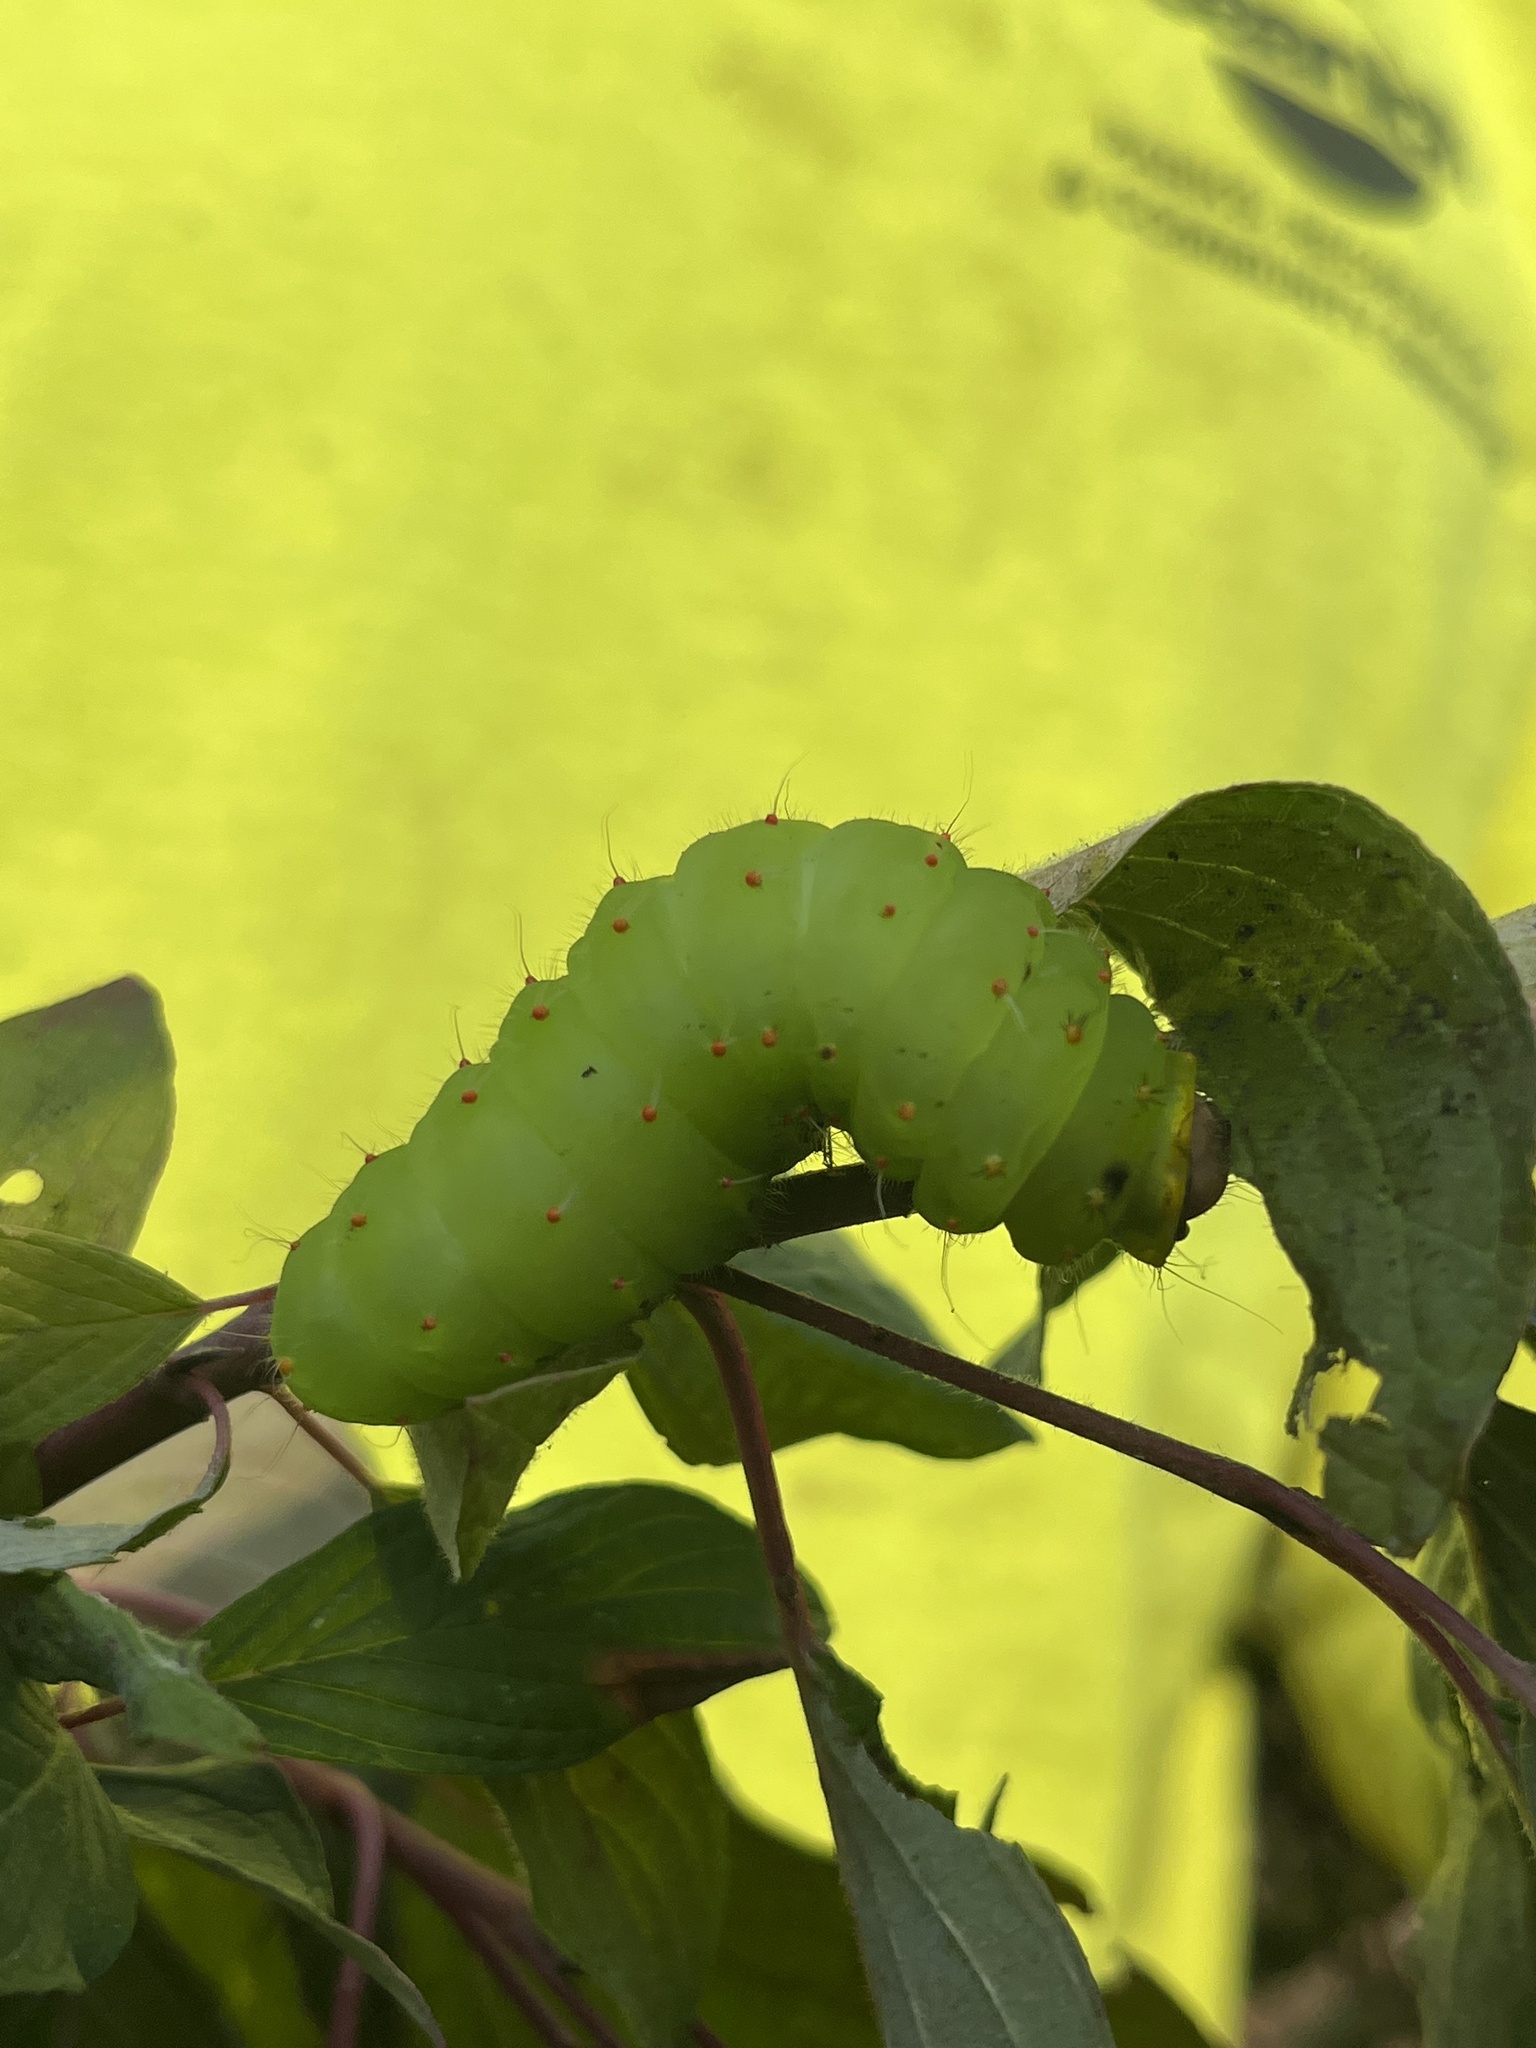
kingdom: Animalia
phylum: Arthropoda
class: Insecta
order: Lepidoptera
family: Saturniidae
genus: Antheraea
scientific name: Antheraea polyphemus
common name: Polyphemus moth
